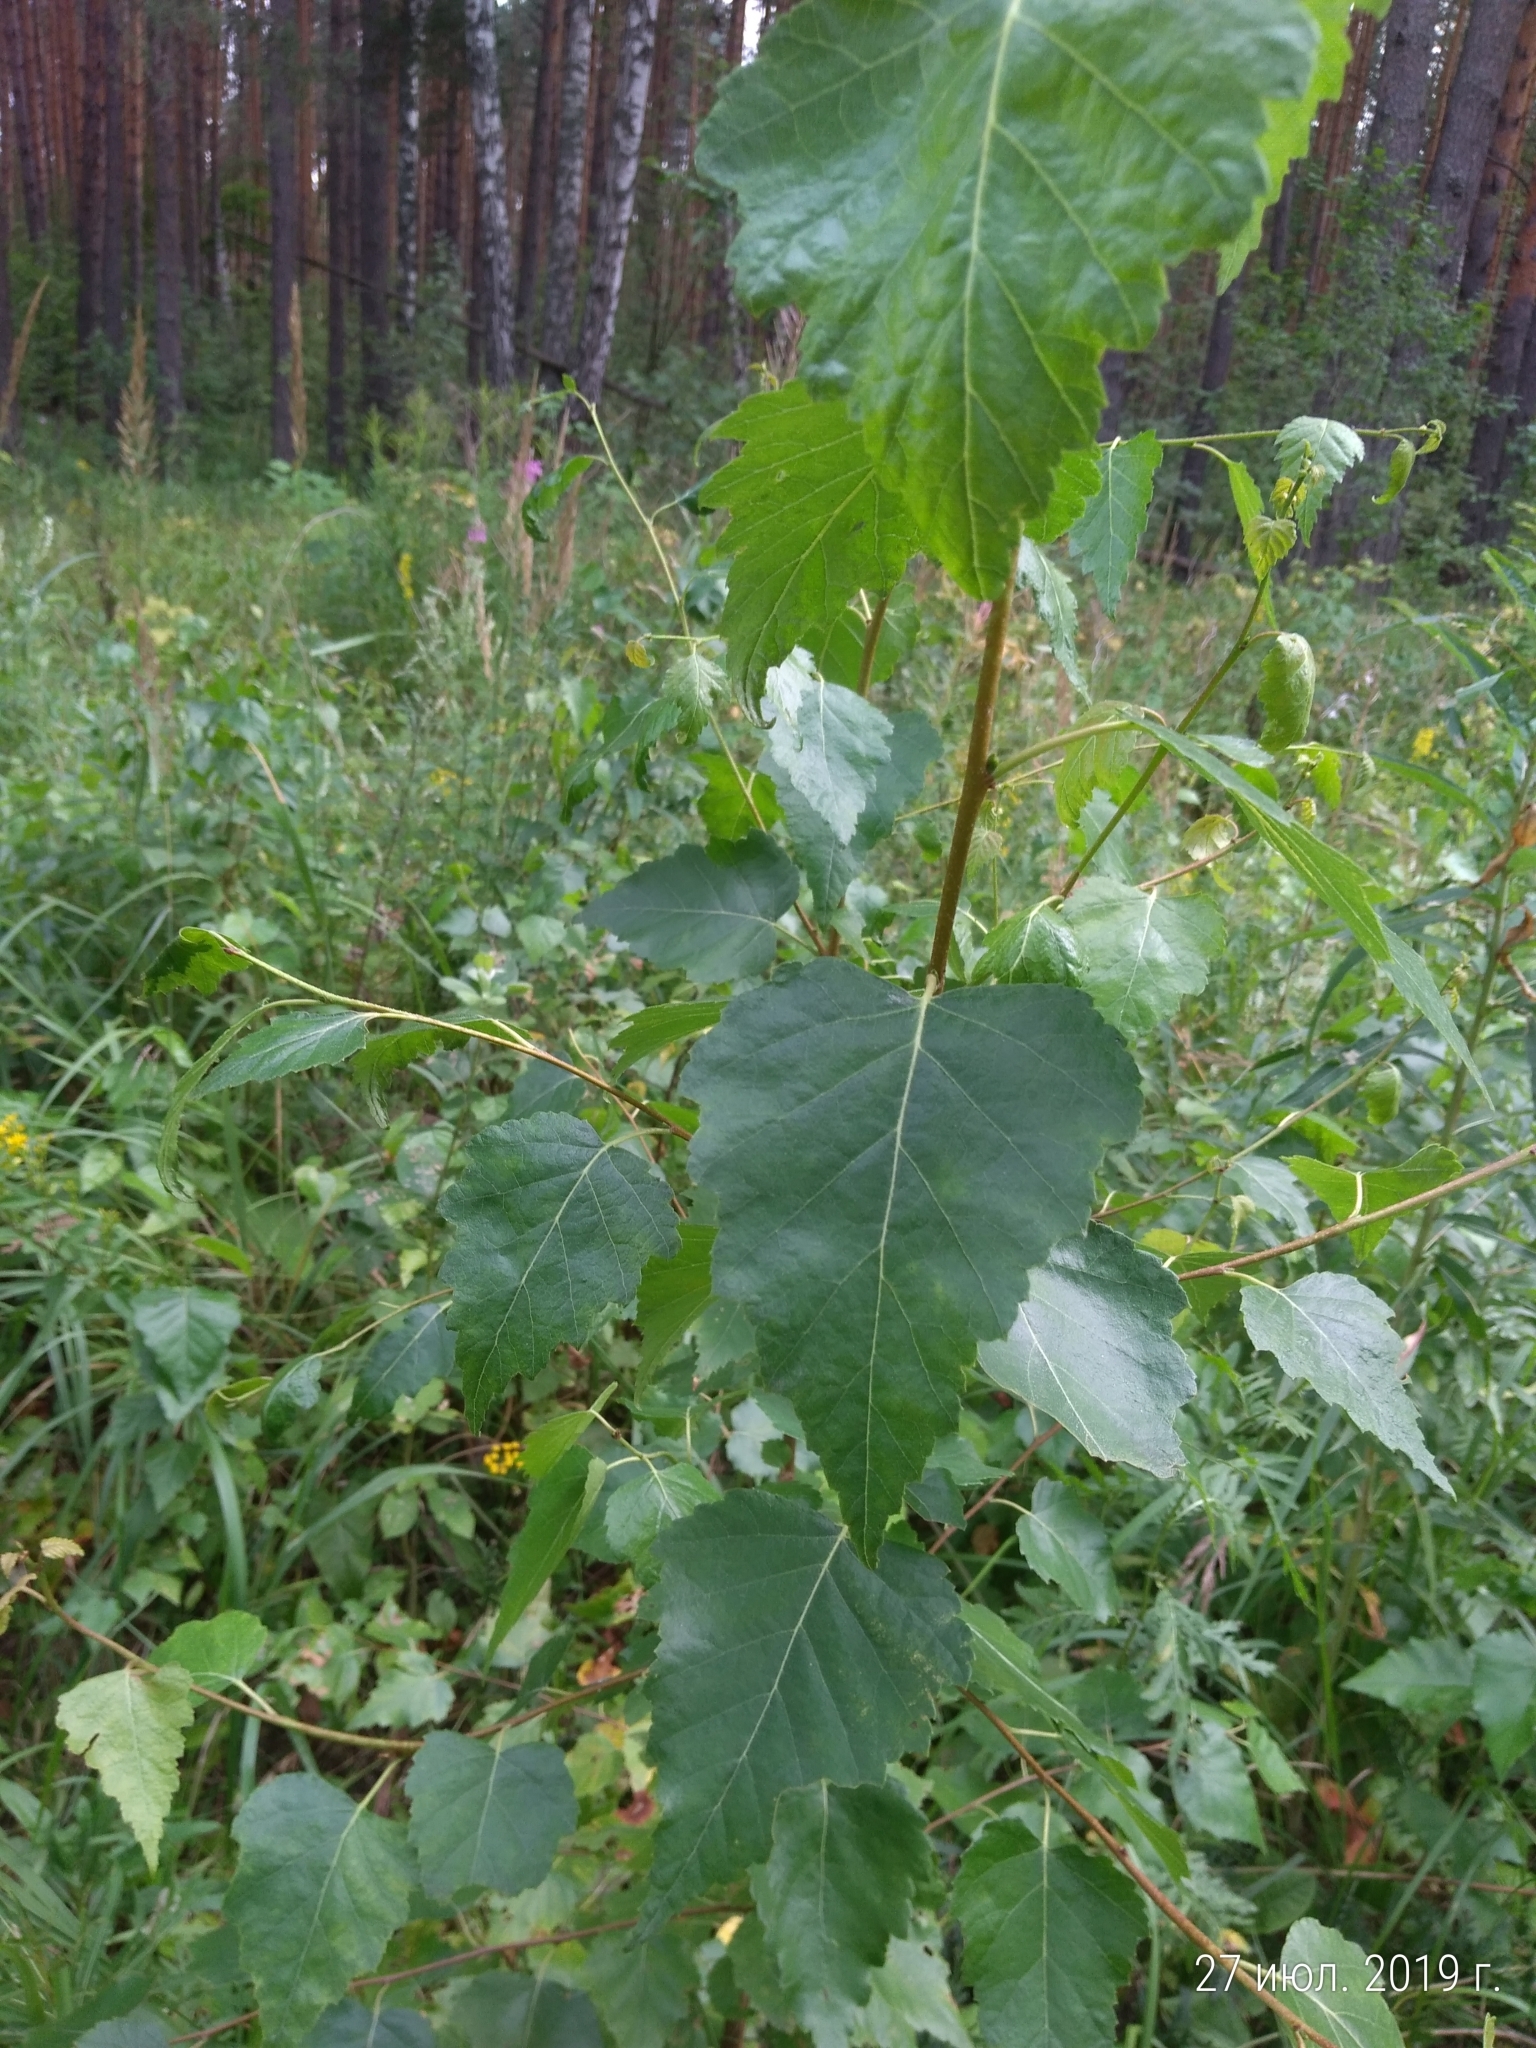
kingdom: Plantae
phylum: Tracheophyta
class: Magnoliopsida
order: Fagales
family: Betulaceae
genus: Betula
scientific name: Betula pendula
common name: Silver birch
